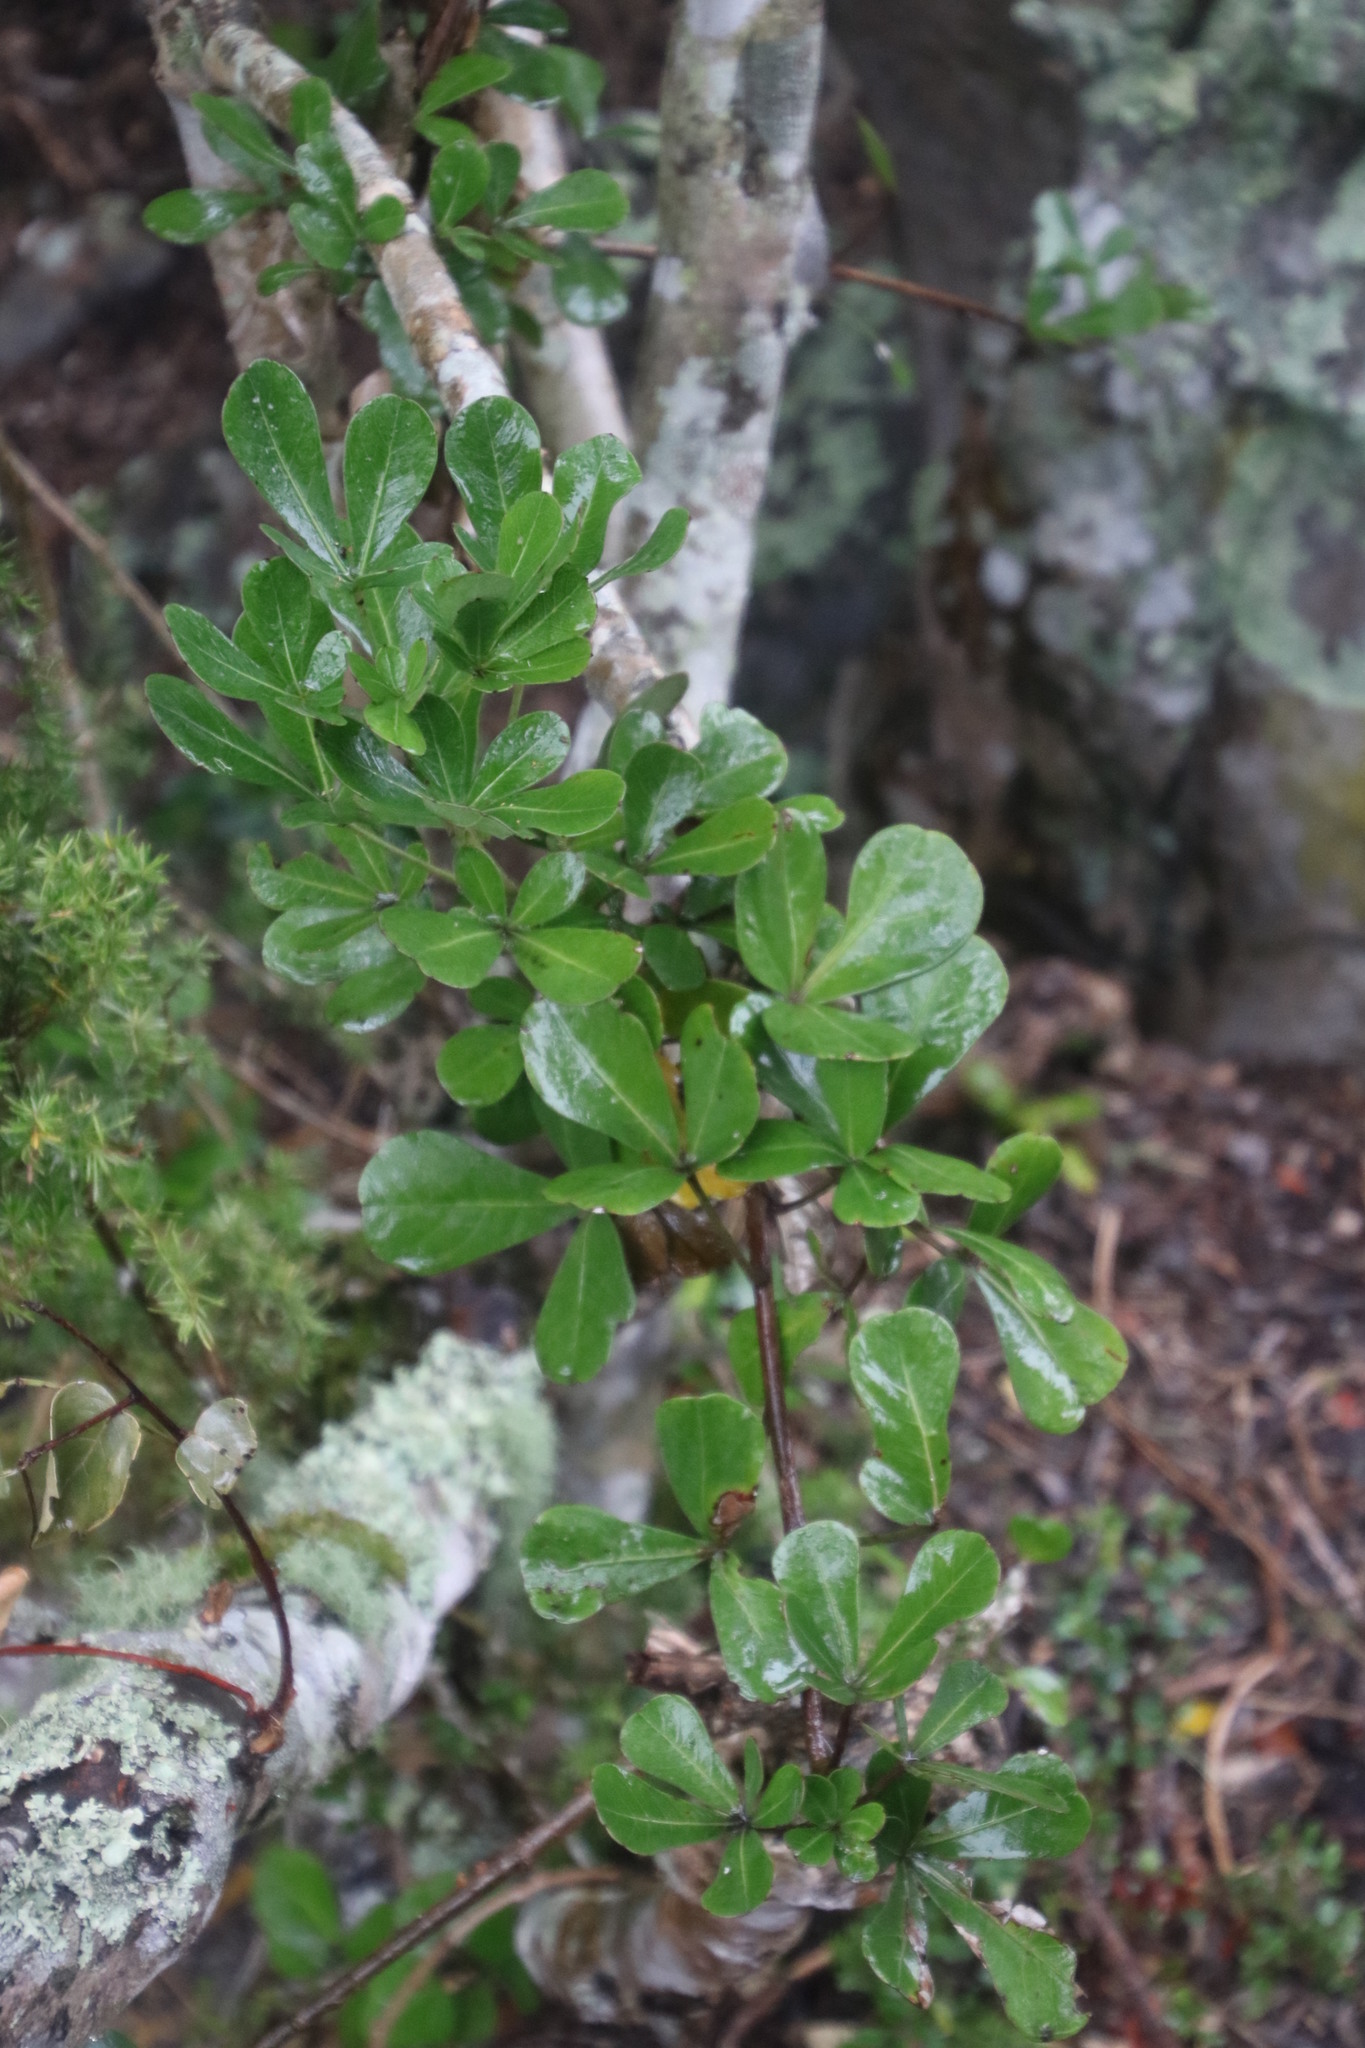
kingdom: Plantae
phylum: Tracheophyta
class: Magnoliopsida
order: Apiales
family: Araliaceae
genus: Cussonia
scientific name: Cussonia thyrsiflora
